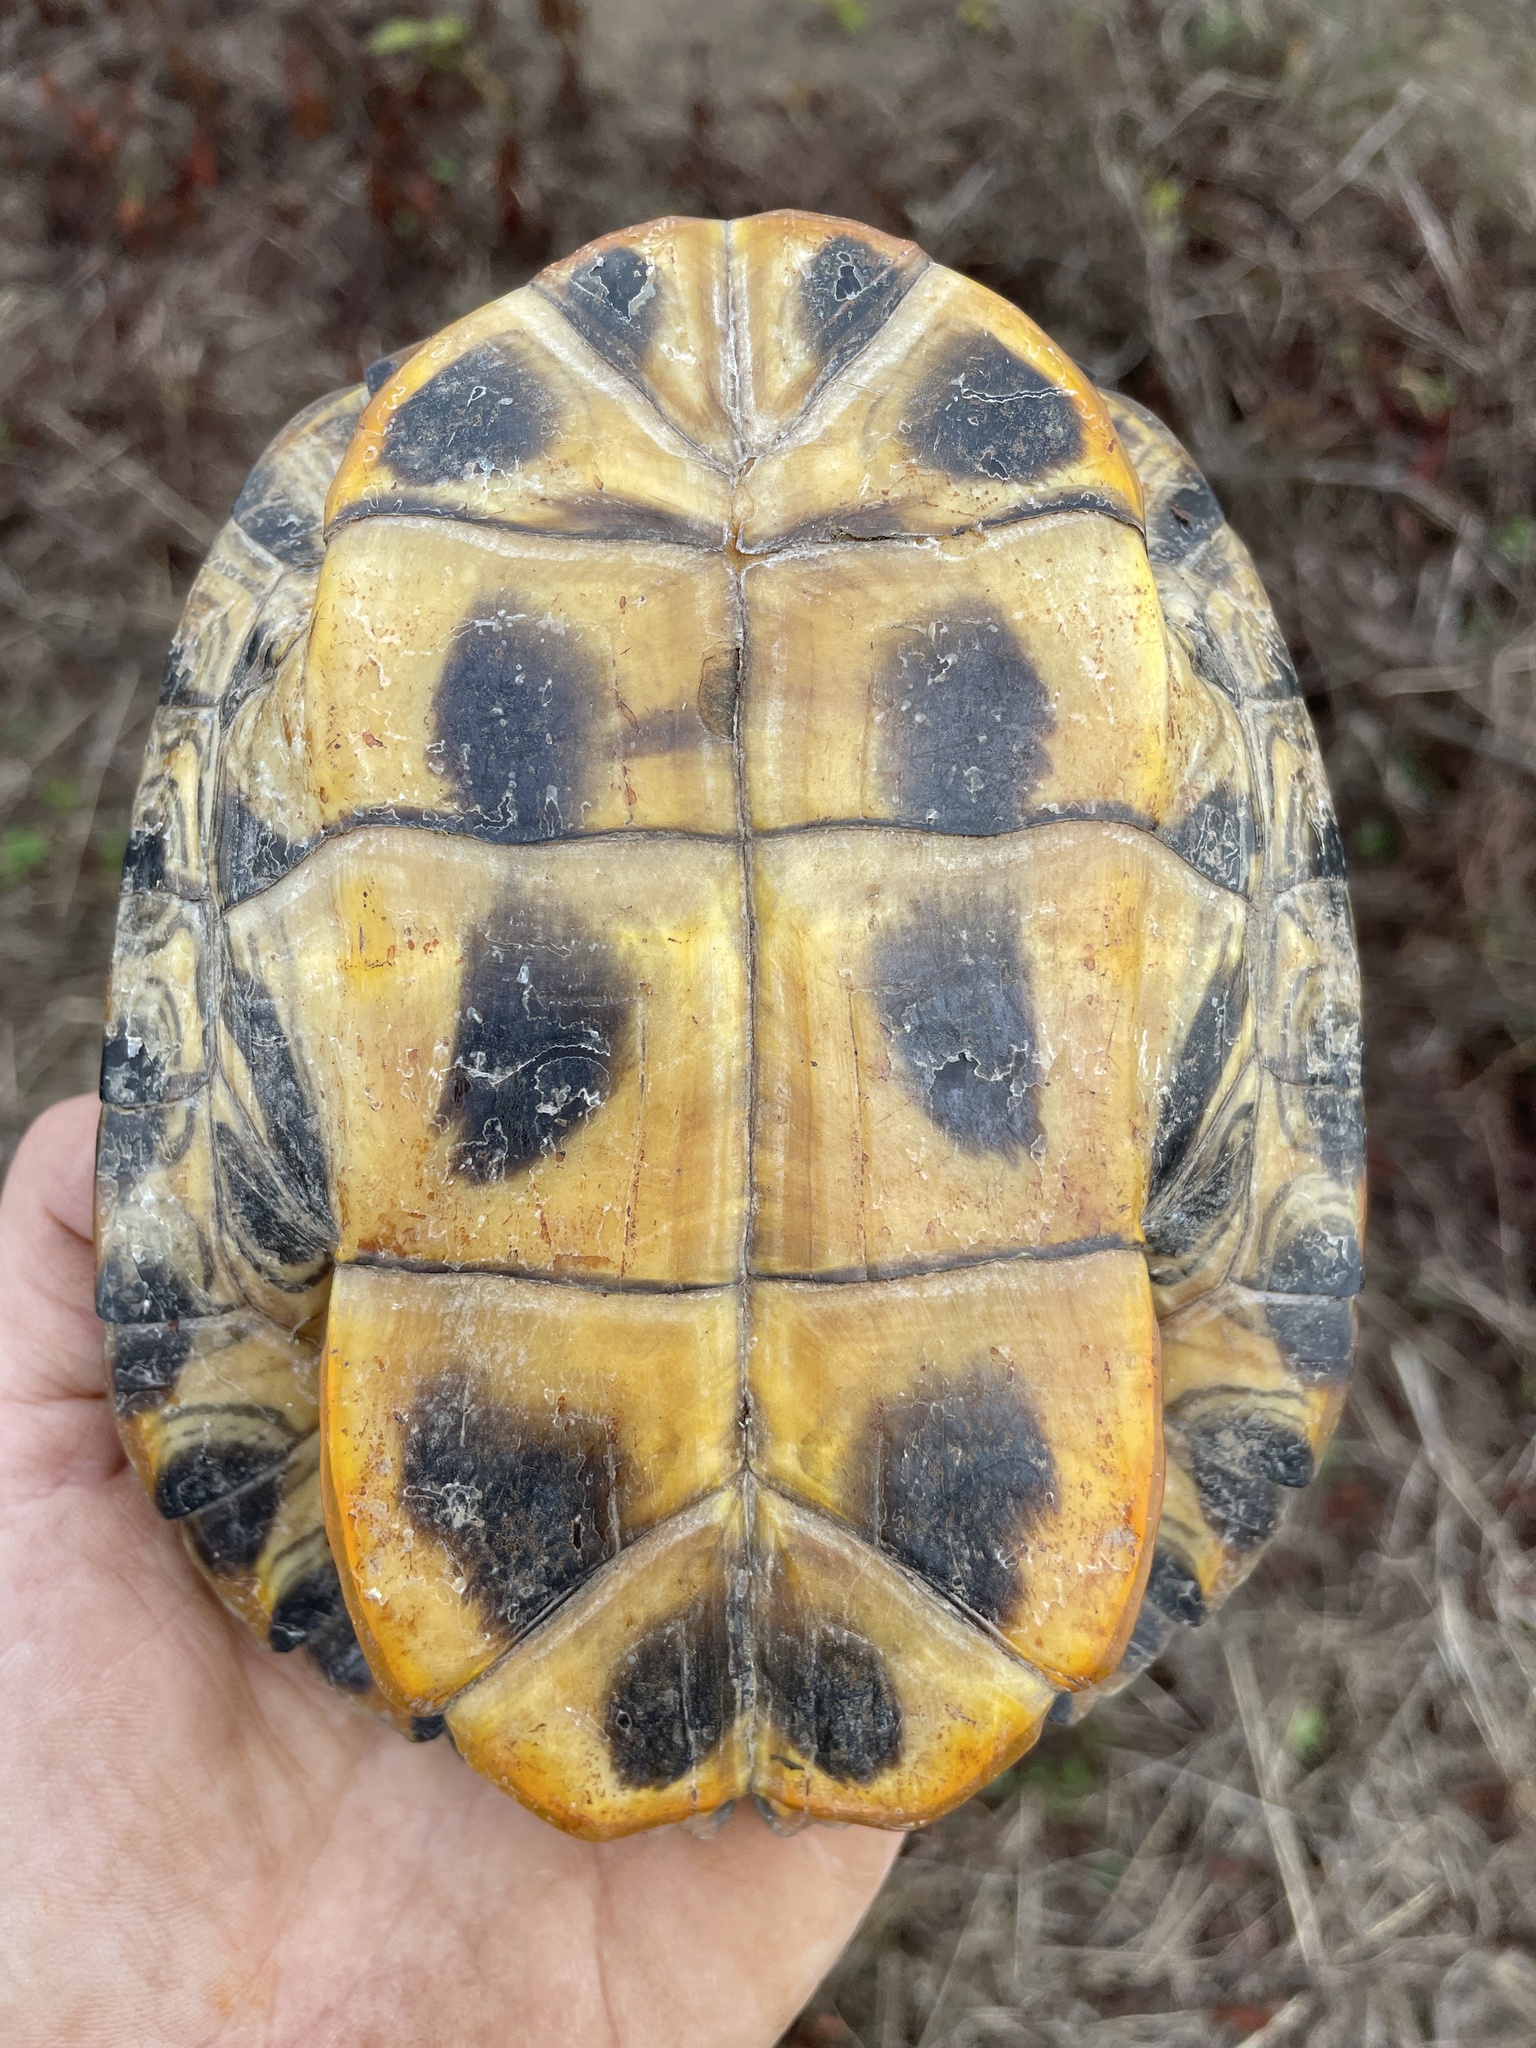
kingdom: Animalia
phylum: Chordata
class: Testudines
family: Emydidae
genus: Trachemys
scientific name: Trachemys scripta
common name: Slider
